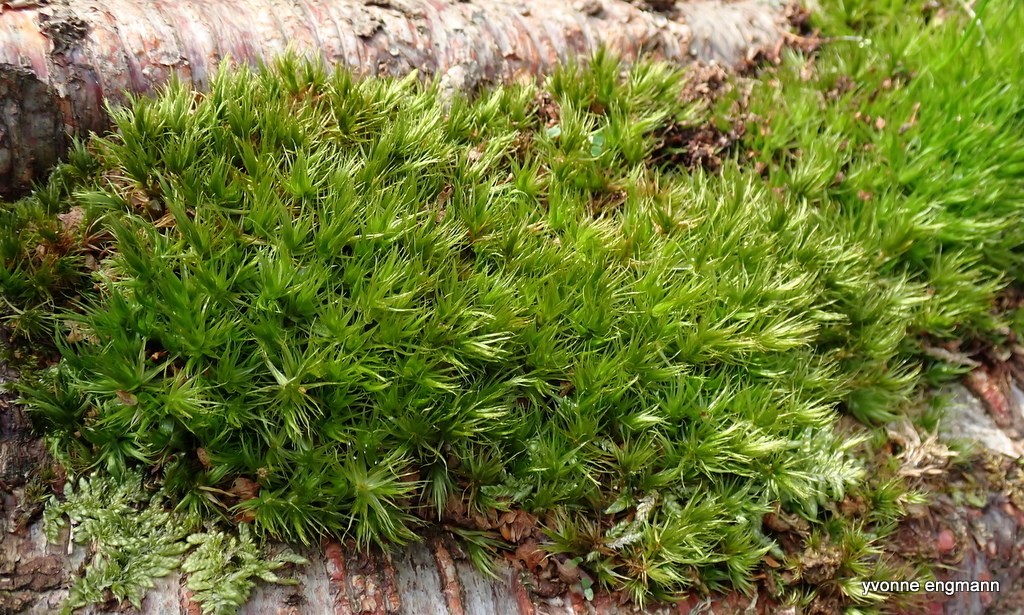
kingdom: Plantae
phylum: Bryophyta
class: Bryopsida
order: Dicranales
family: Dicranaceae
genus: Dicranum
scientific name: Dicranum polysetum
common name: Rugose fork-moss
